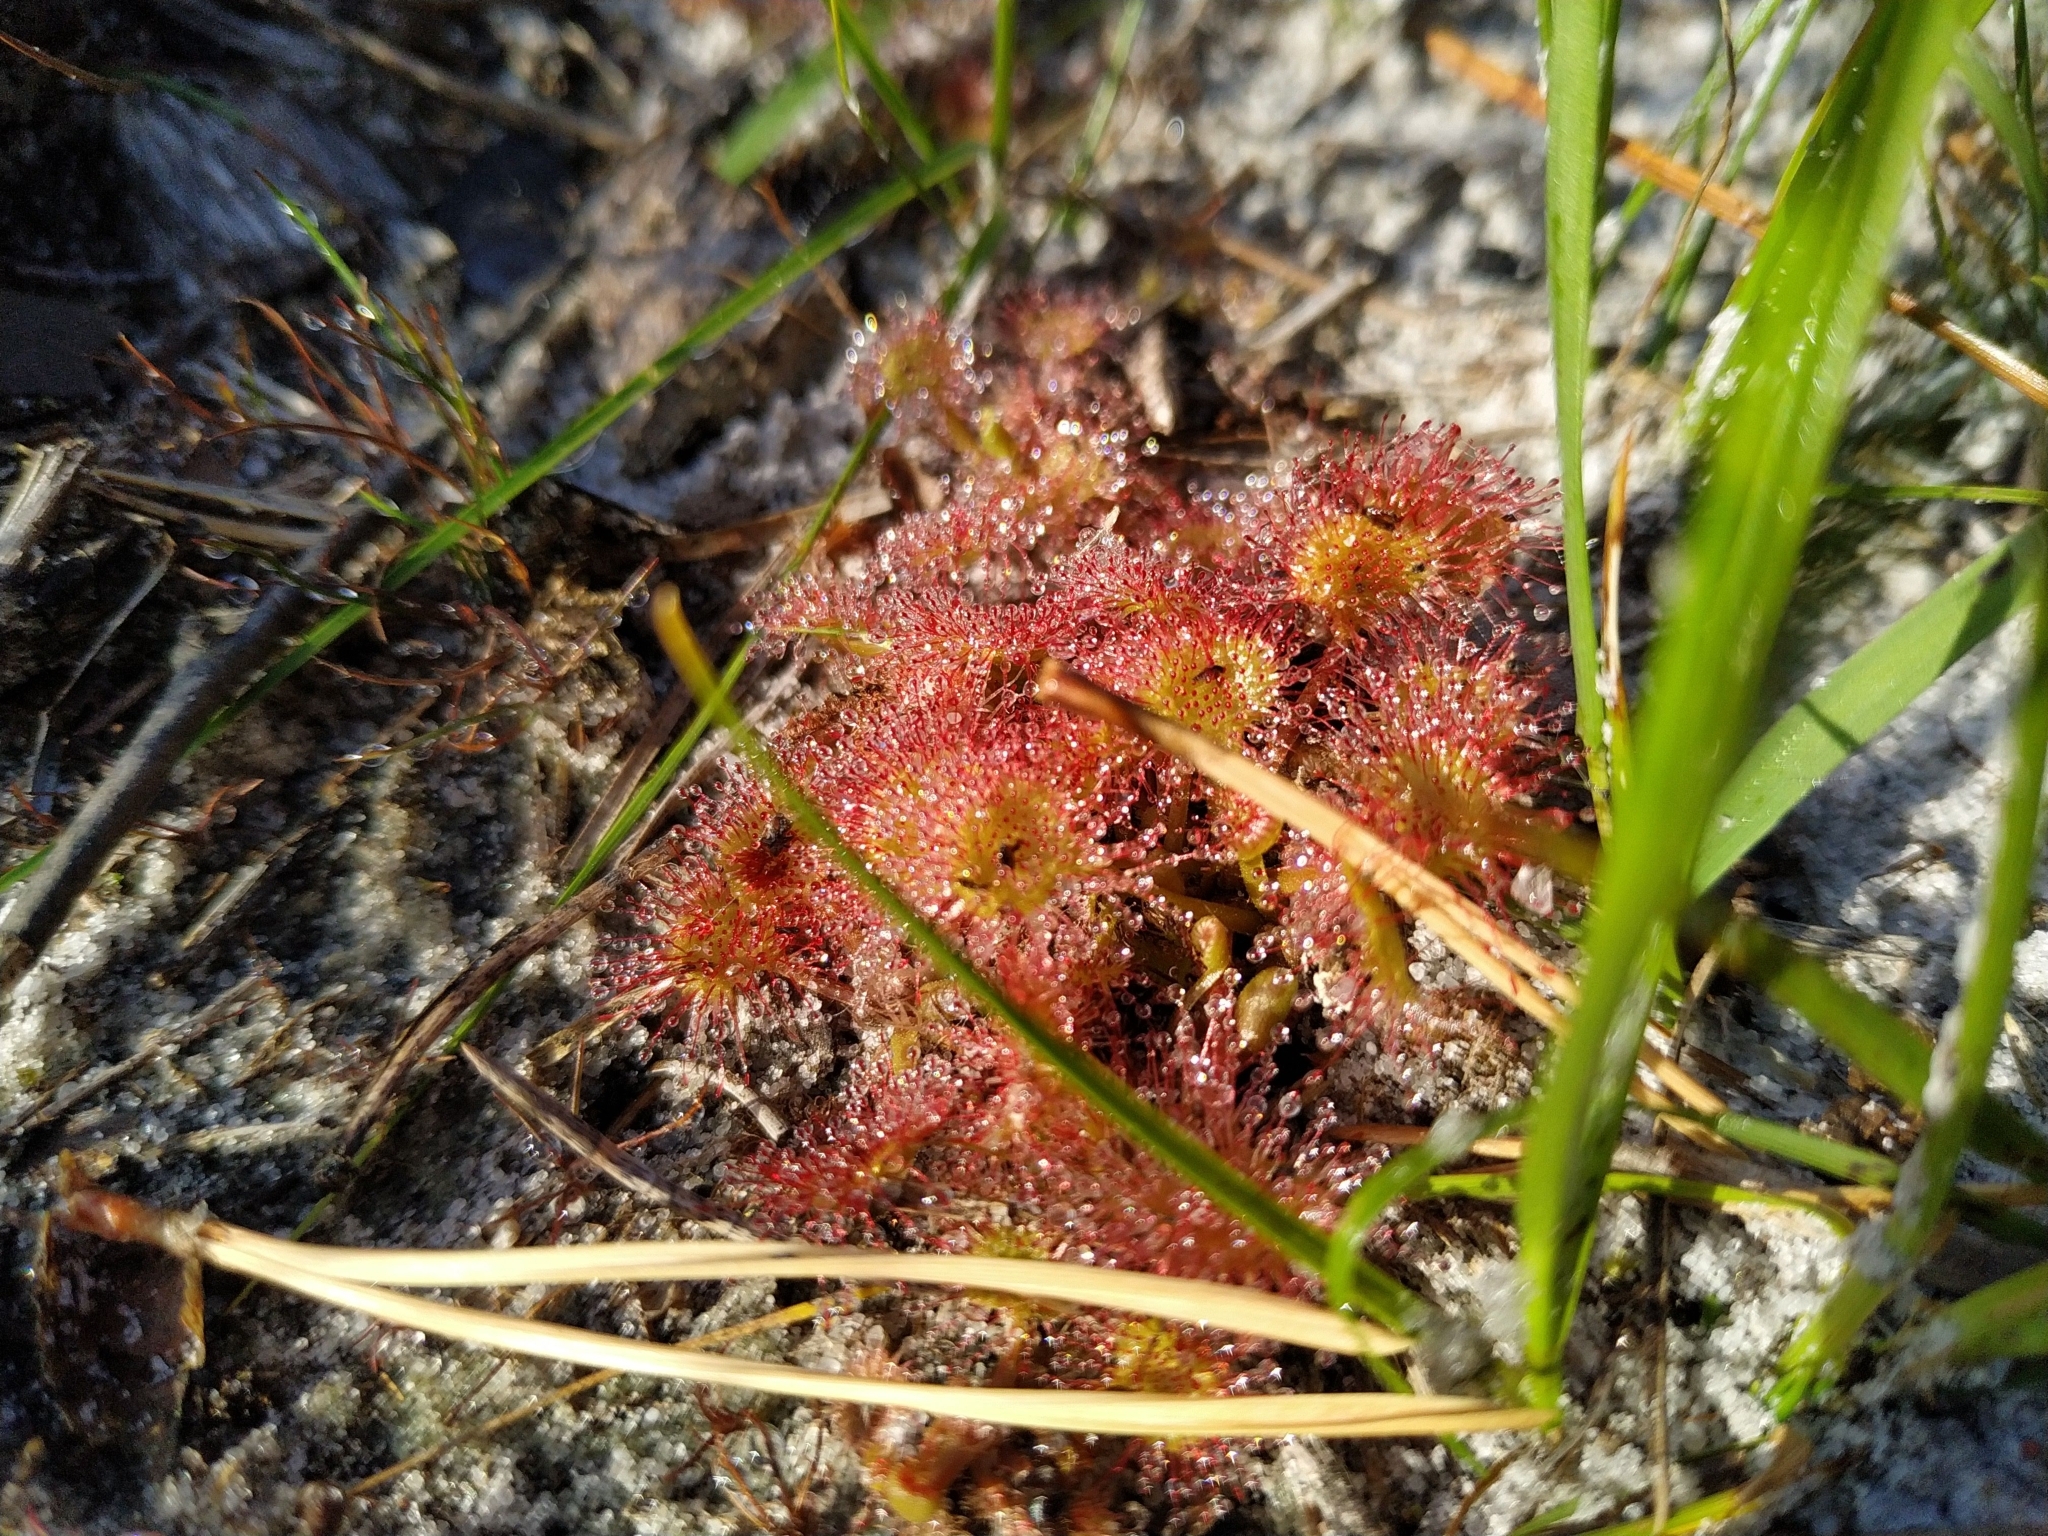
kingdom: Plantae
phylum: Tracheophyta
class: Magnoliopsida
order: Caryophyllales
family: Droseraceae
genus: Drosera
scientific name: Drosera rotundifolia
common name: Round-leaved sundew
